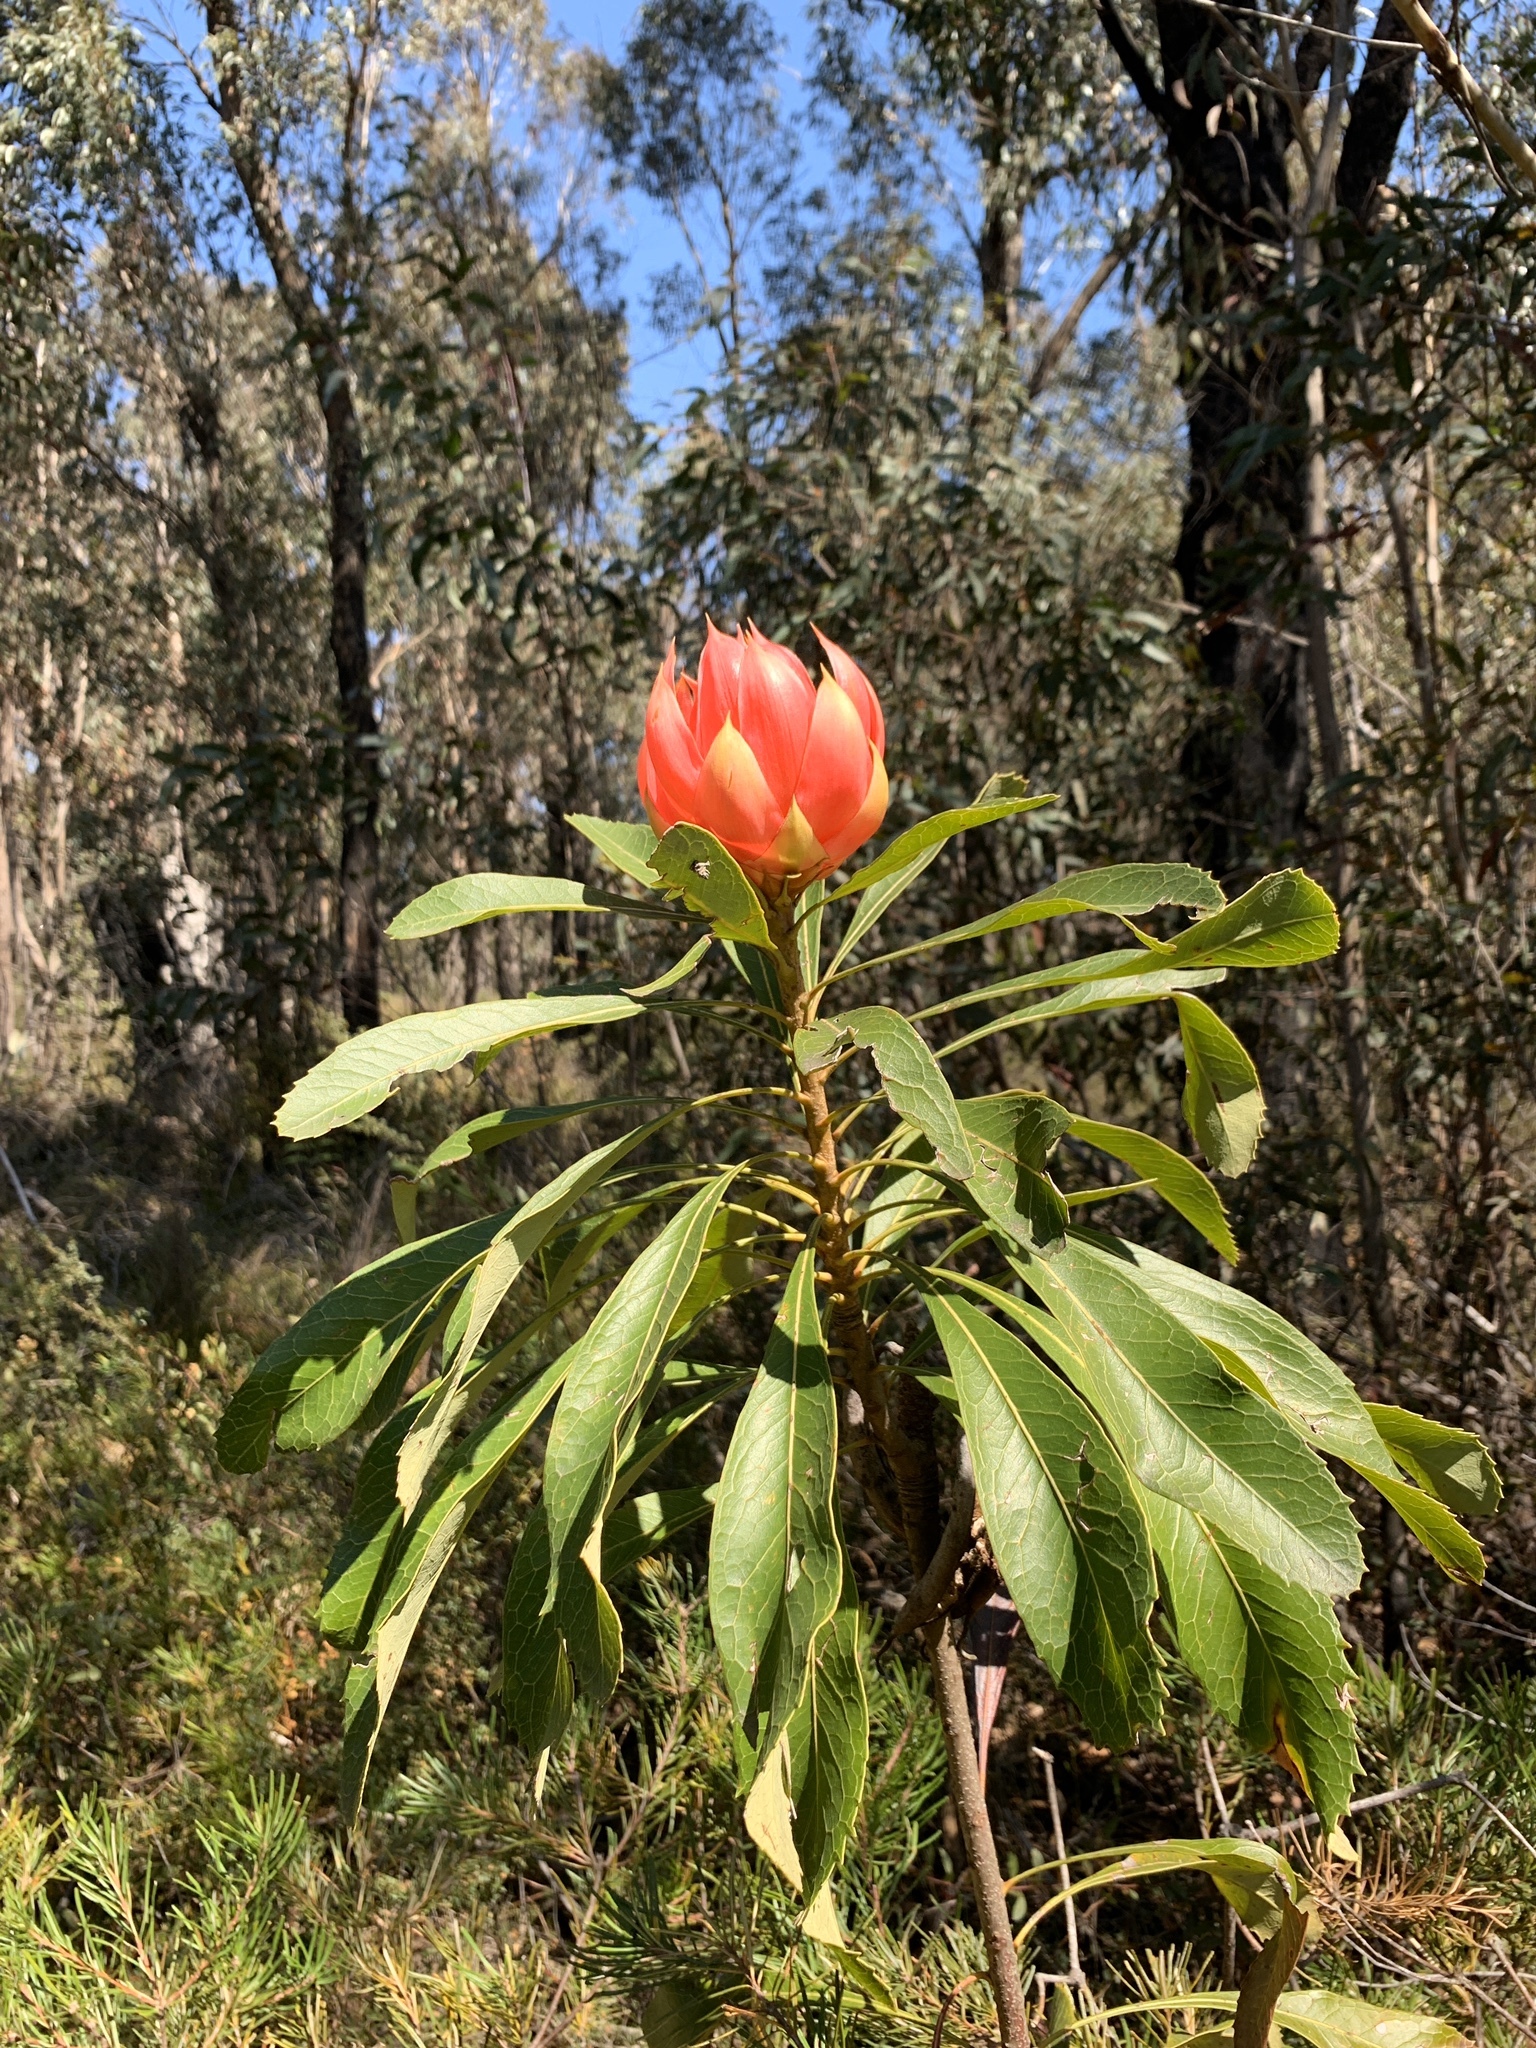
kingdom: Plantae
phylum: Tracheophyta
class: Magnoliopsida
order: Proteales
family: Proteaceae
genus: Telopea
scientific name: Telopea speciosissima
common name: New south wales waratah
